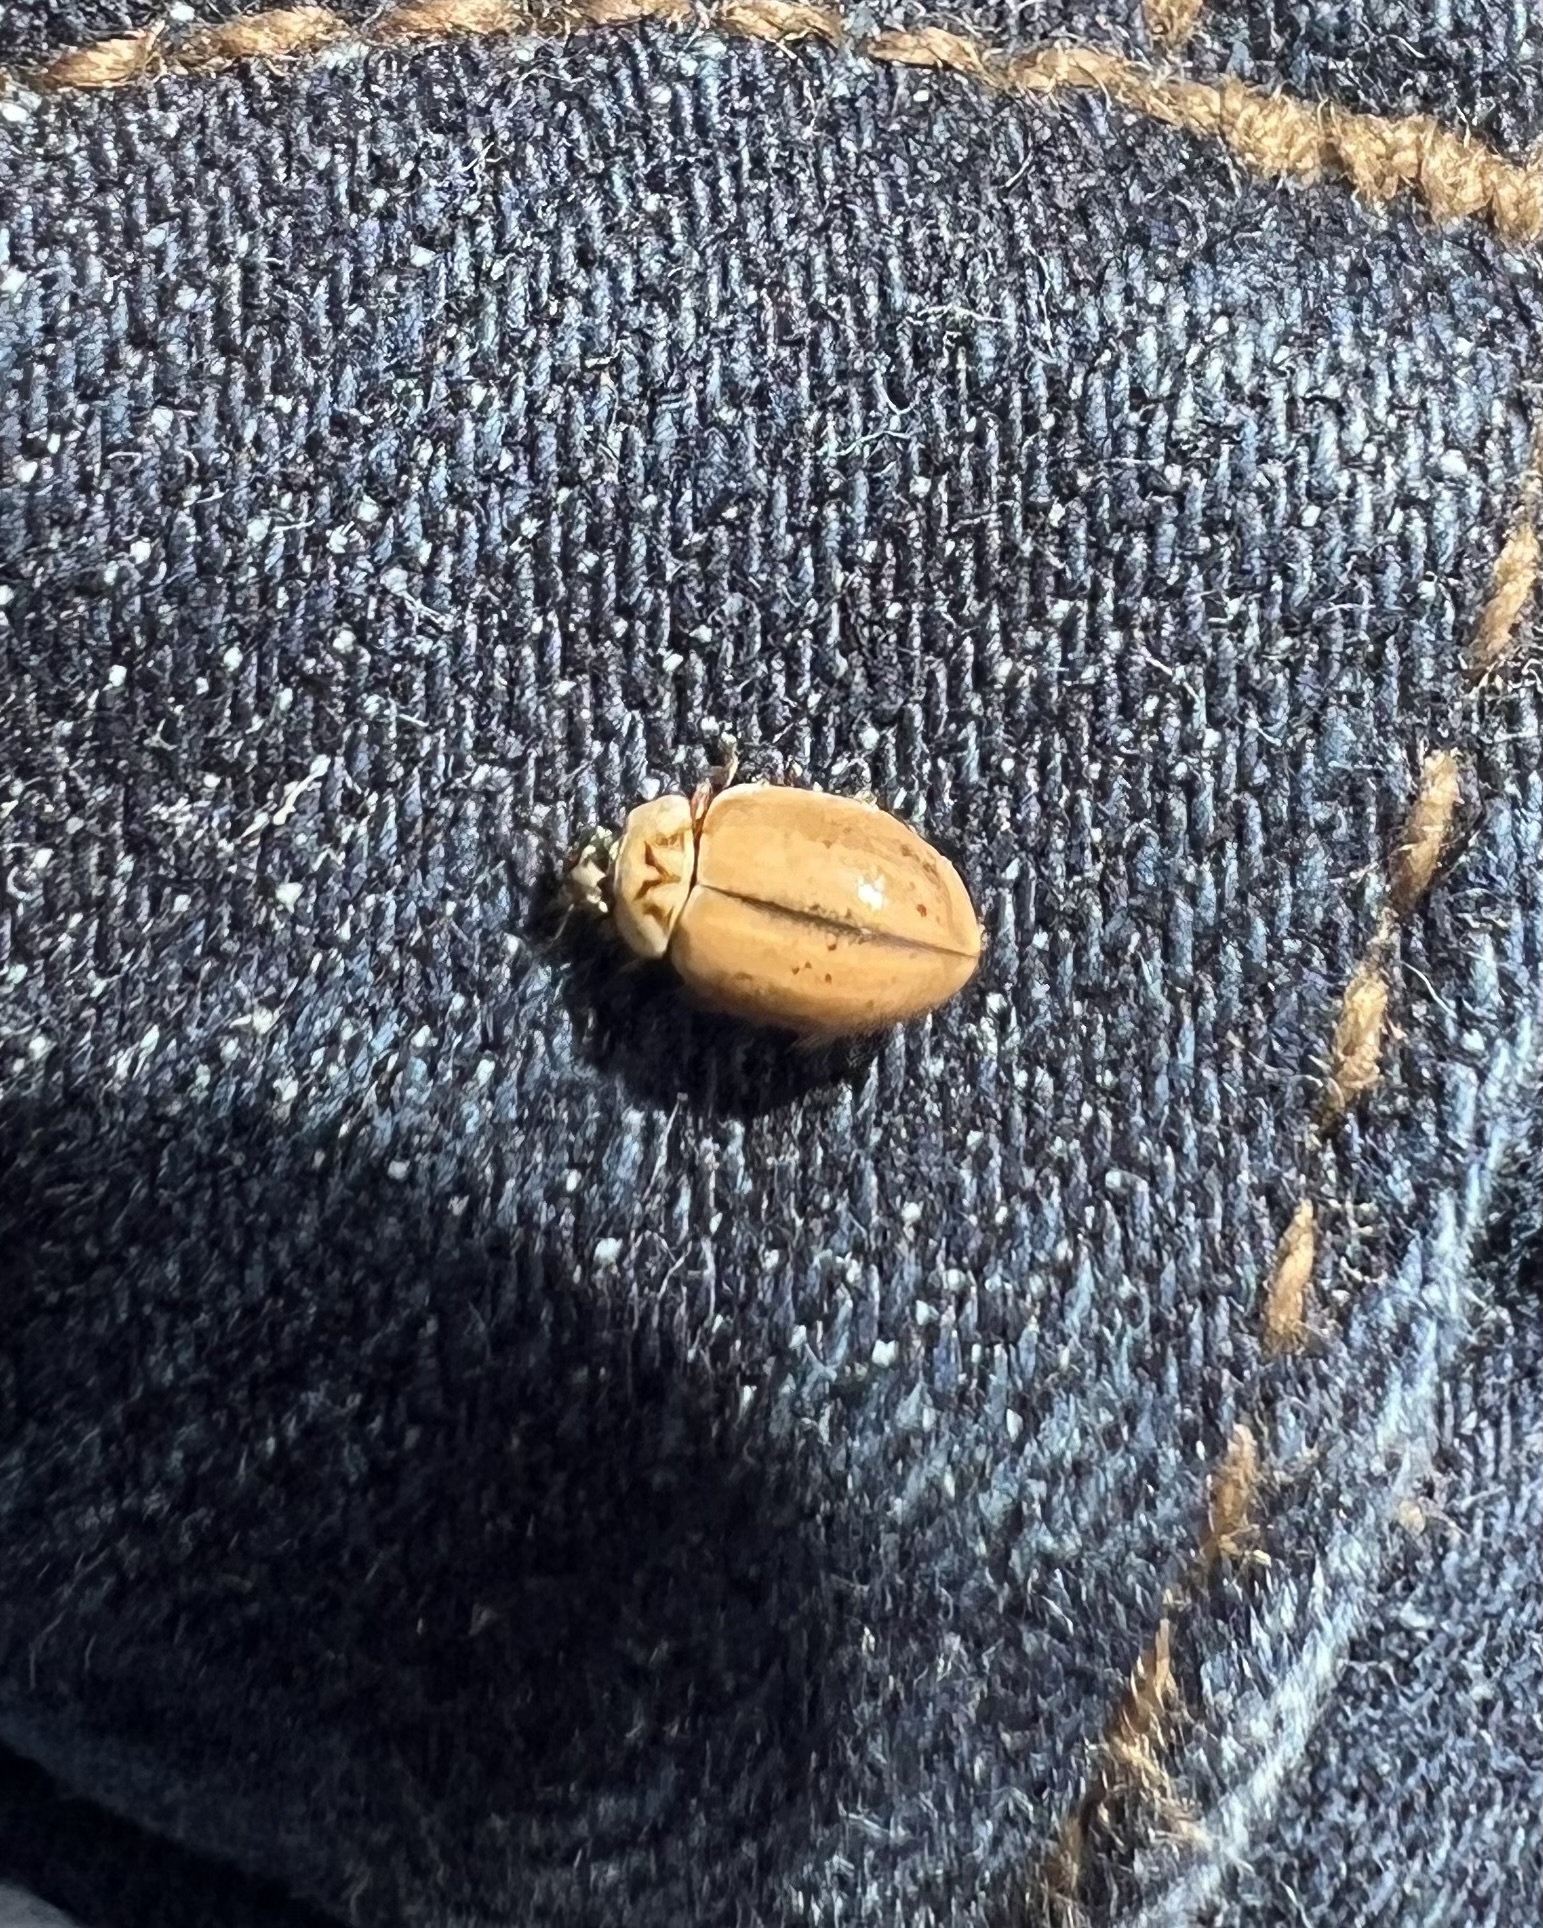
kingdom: Animalia
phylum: Arthropoda
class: Insecta
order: Coleoptera
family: Coccinellidae
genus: Aphidecta
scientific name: Aphidecta obliterata
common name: Larch ladybird
